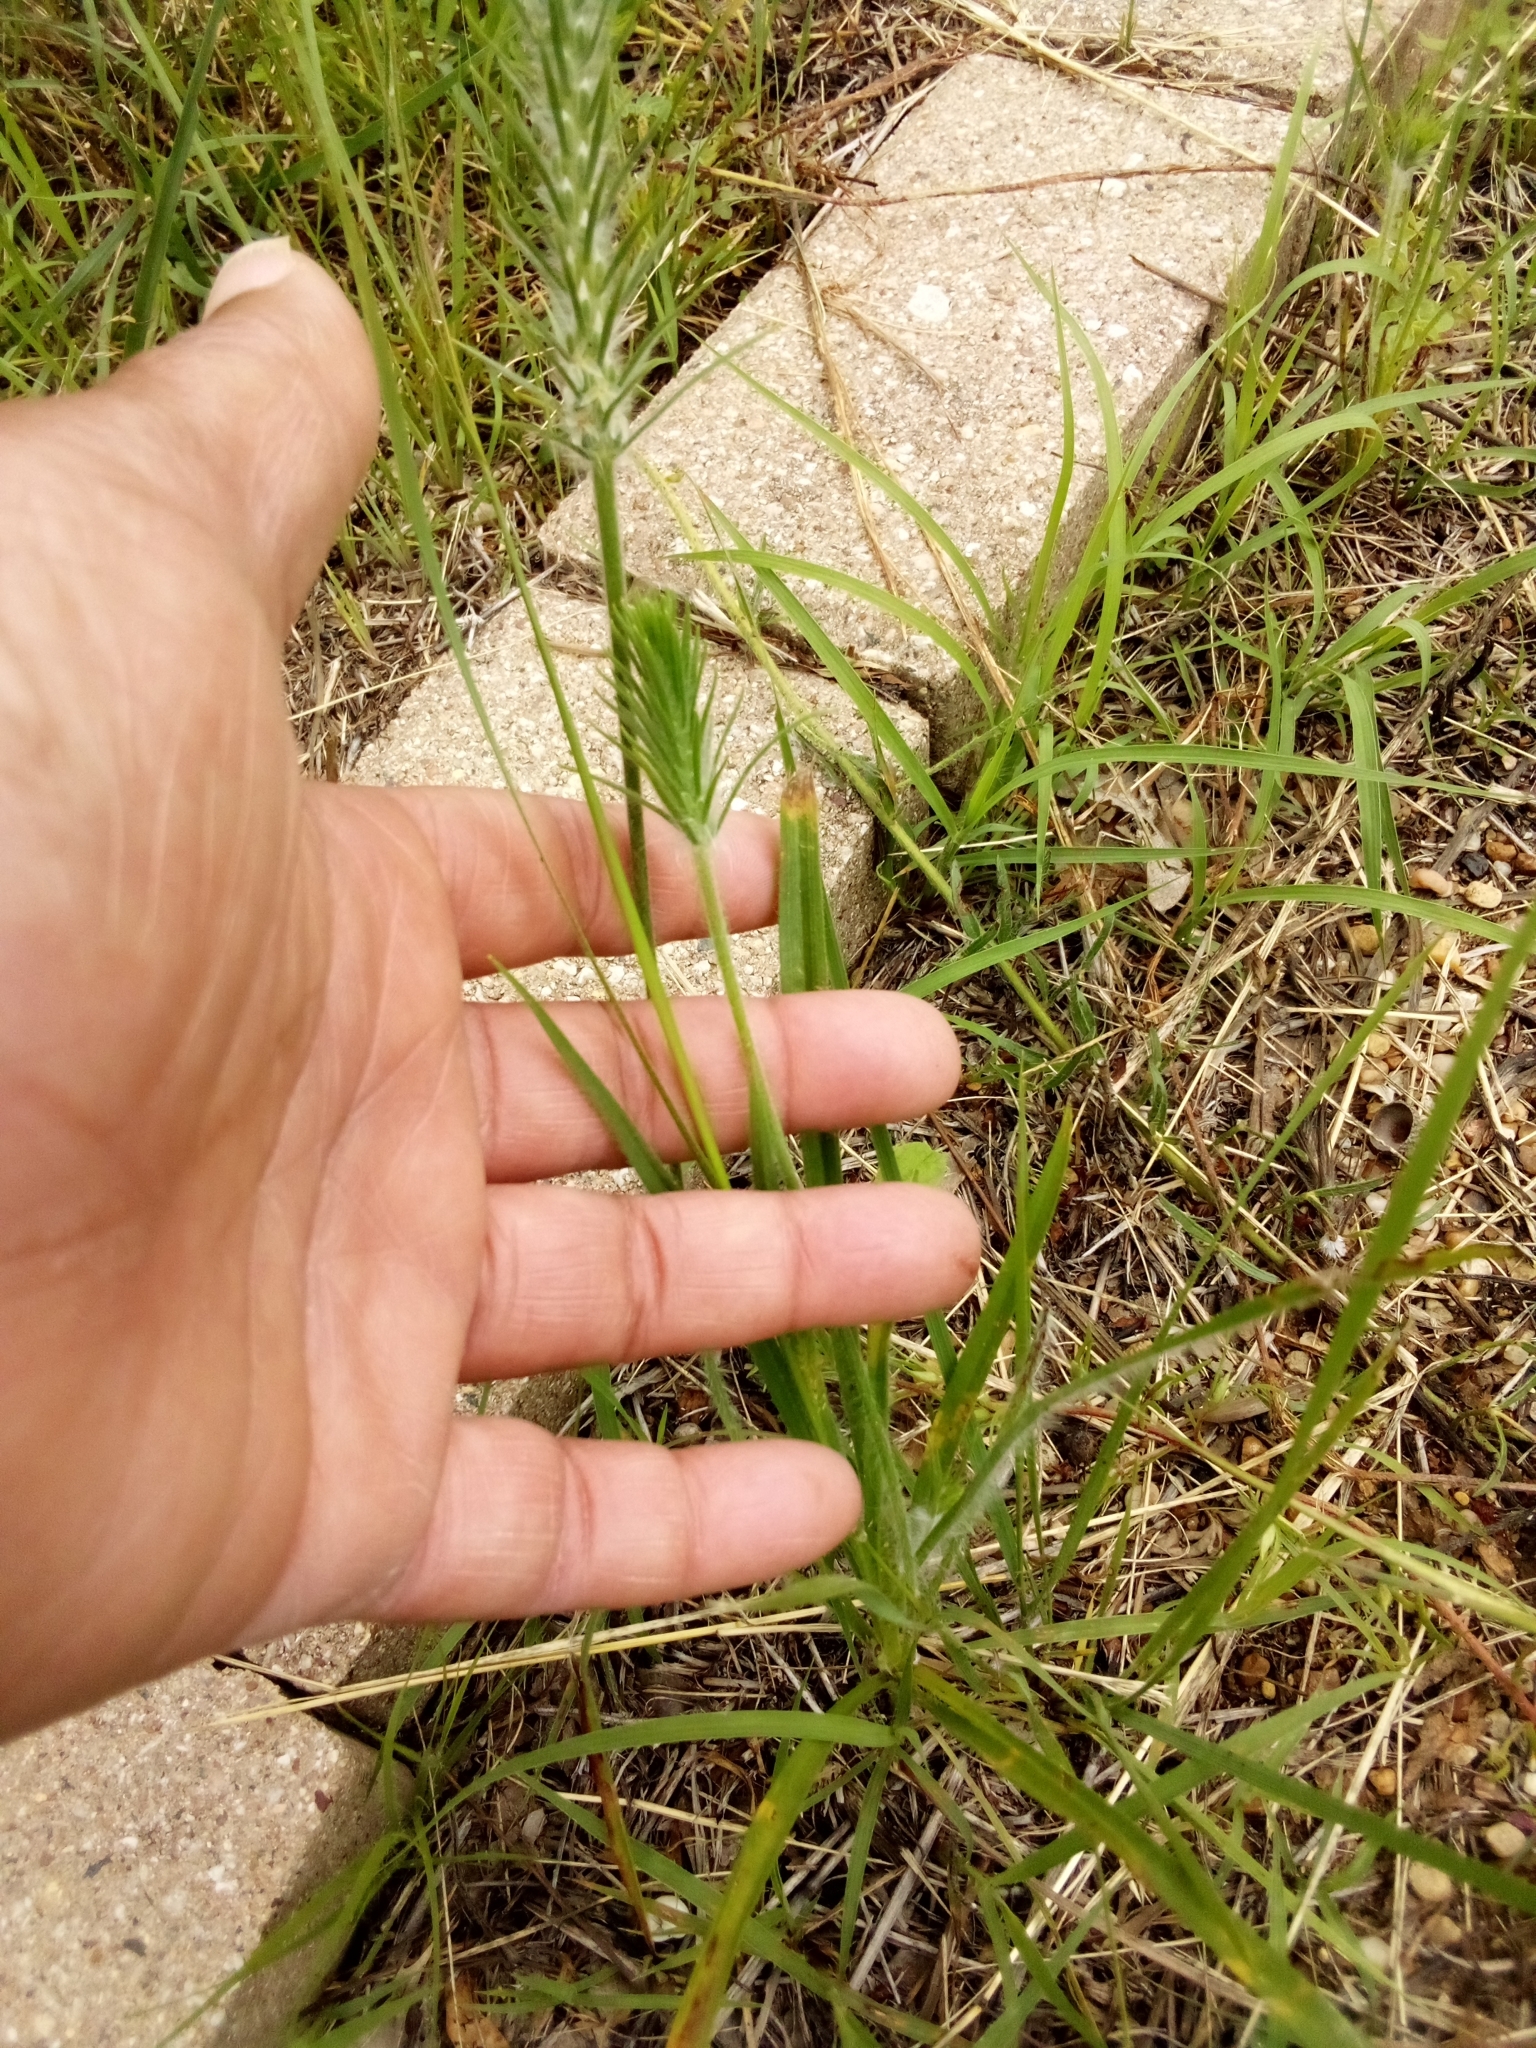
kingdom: Plantae
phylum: Tracheophyta
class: Magnoliopsida
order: Lamiales
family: Plantaginaceae
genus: Plantago
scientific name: Plantago aristata
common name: Bracted plantain
